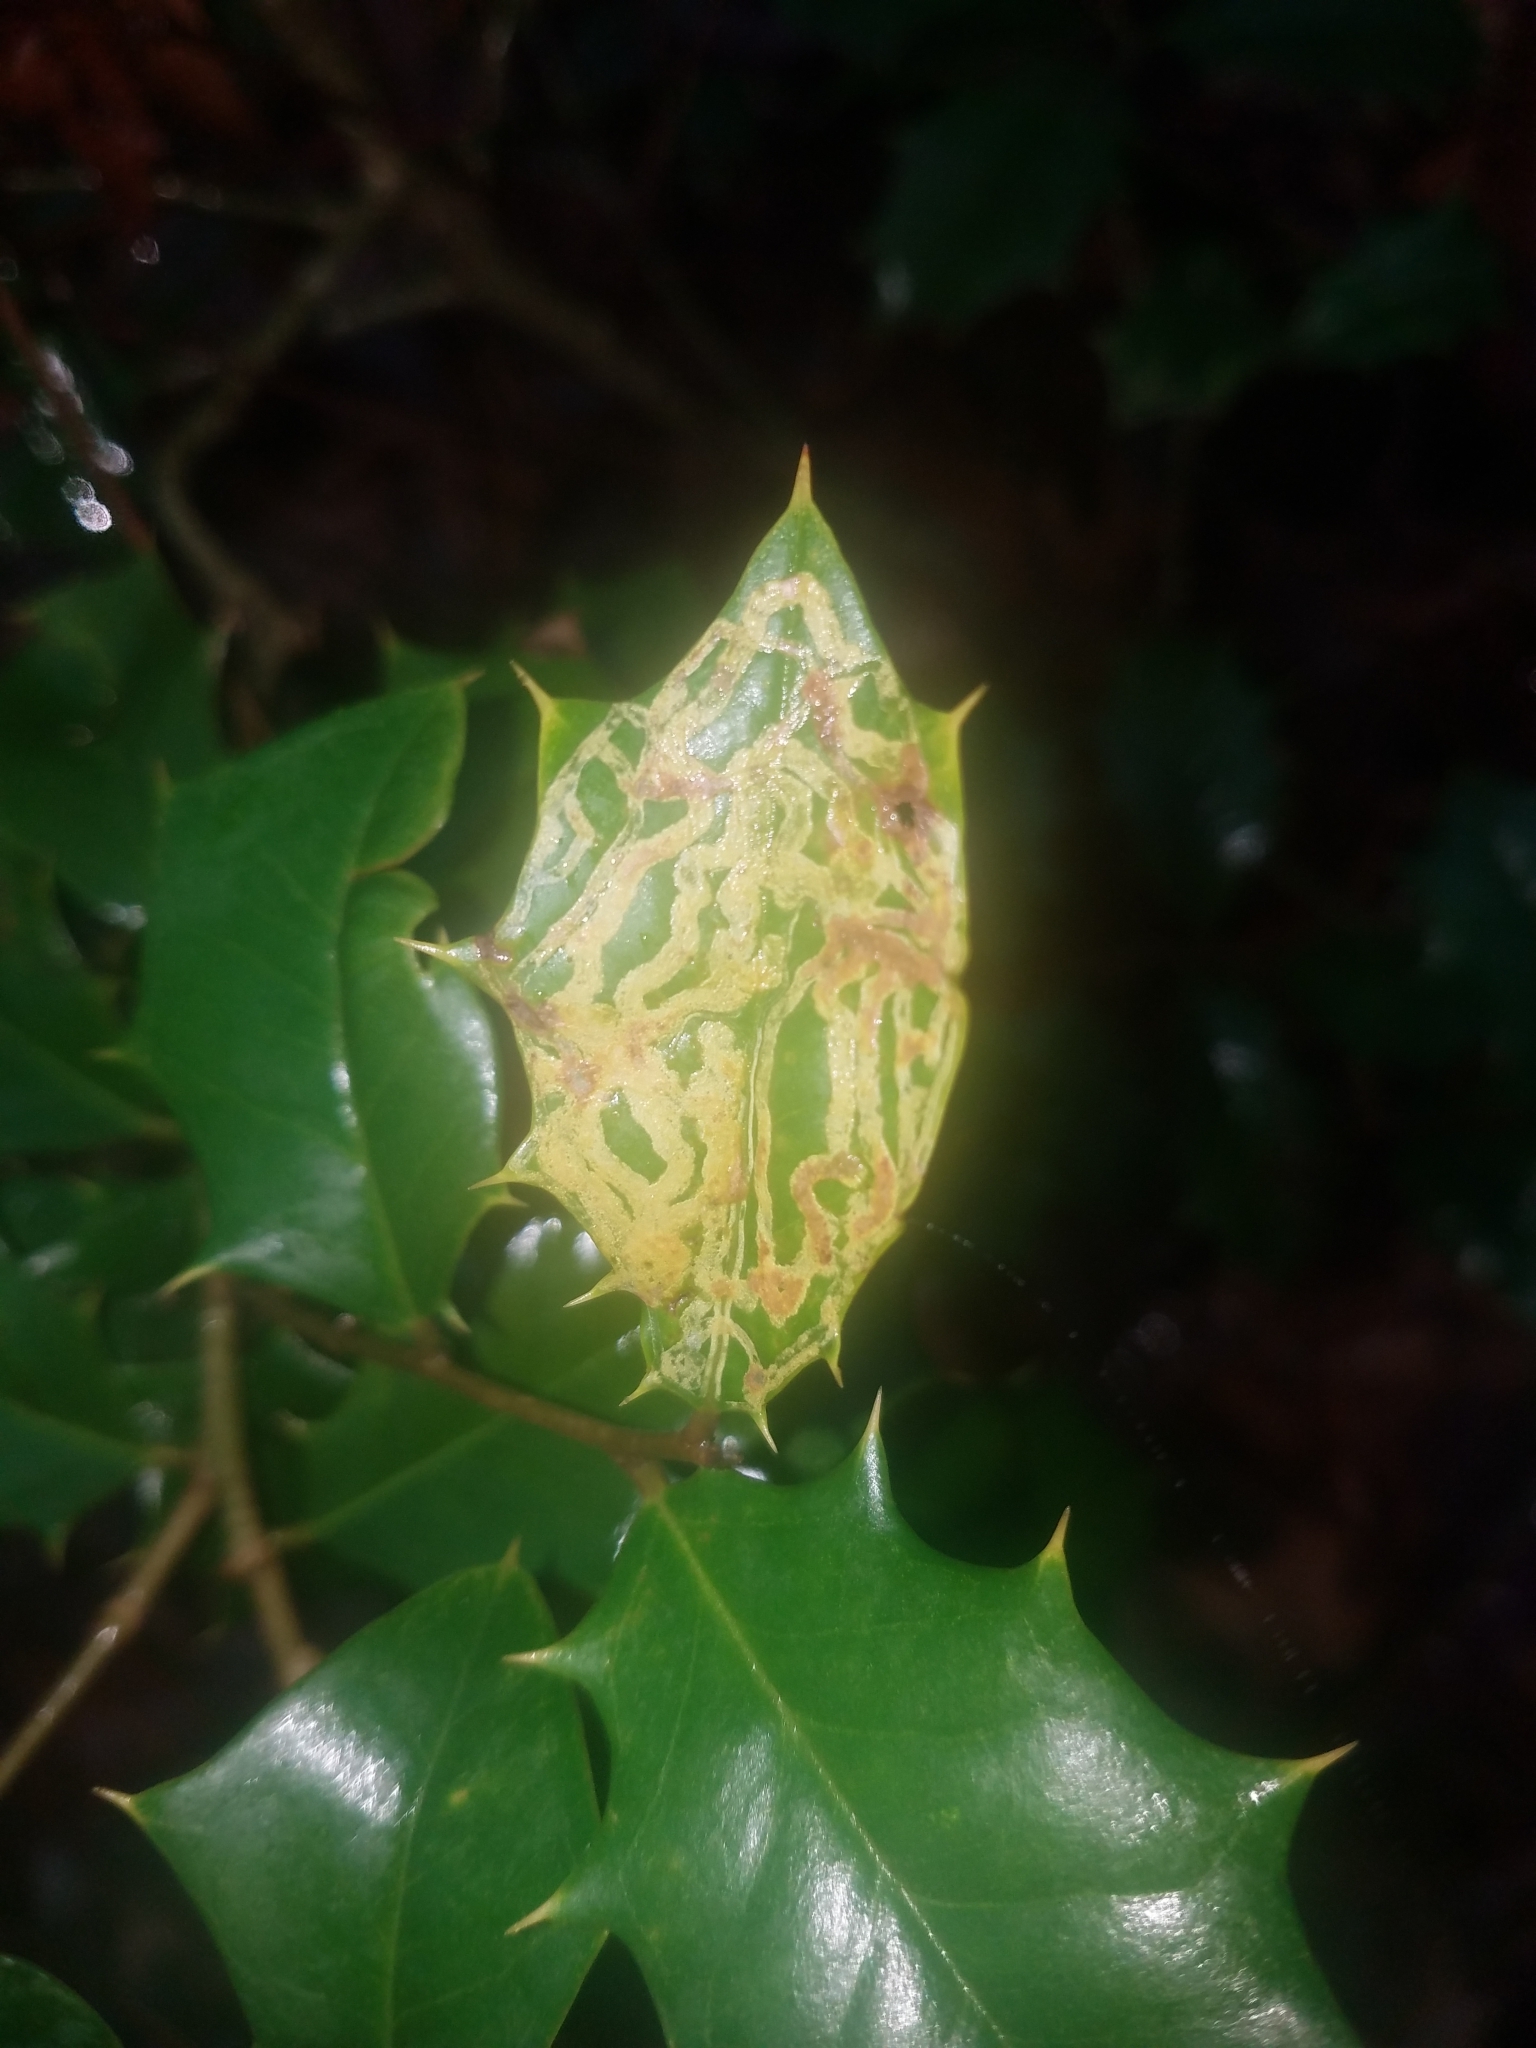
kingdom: Animalia
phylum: Arthropoda
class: Insecta
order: Diptera
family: Agromyzidae
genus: Phytomyza
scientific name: Phytomyza opacae
